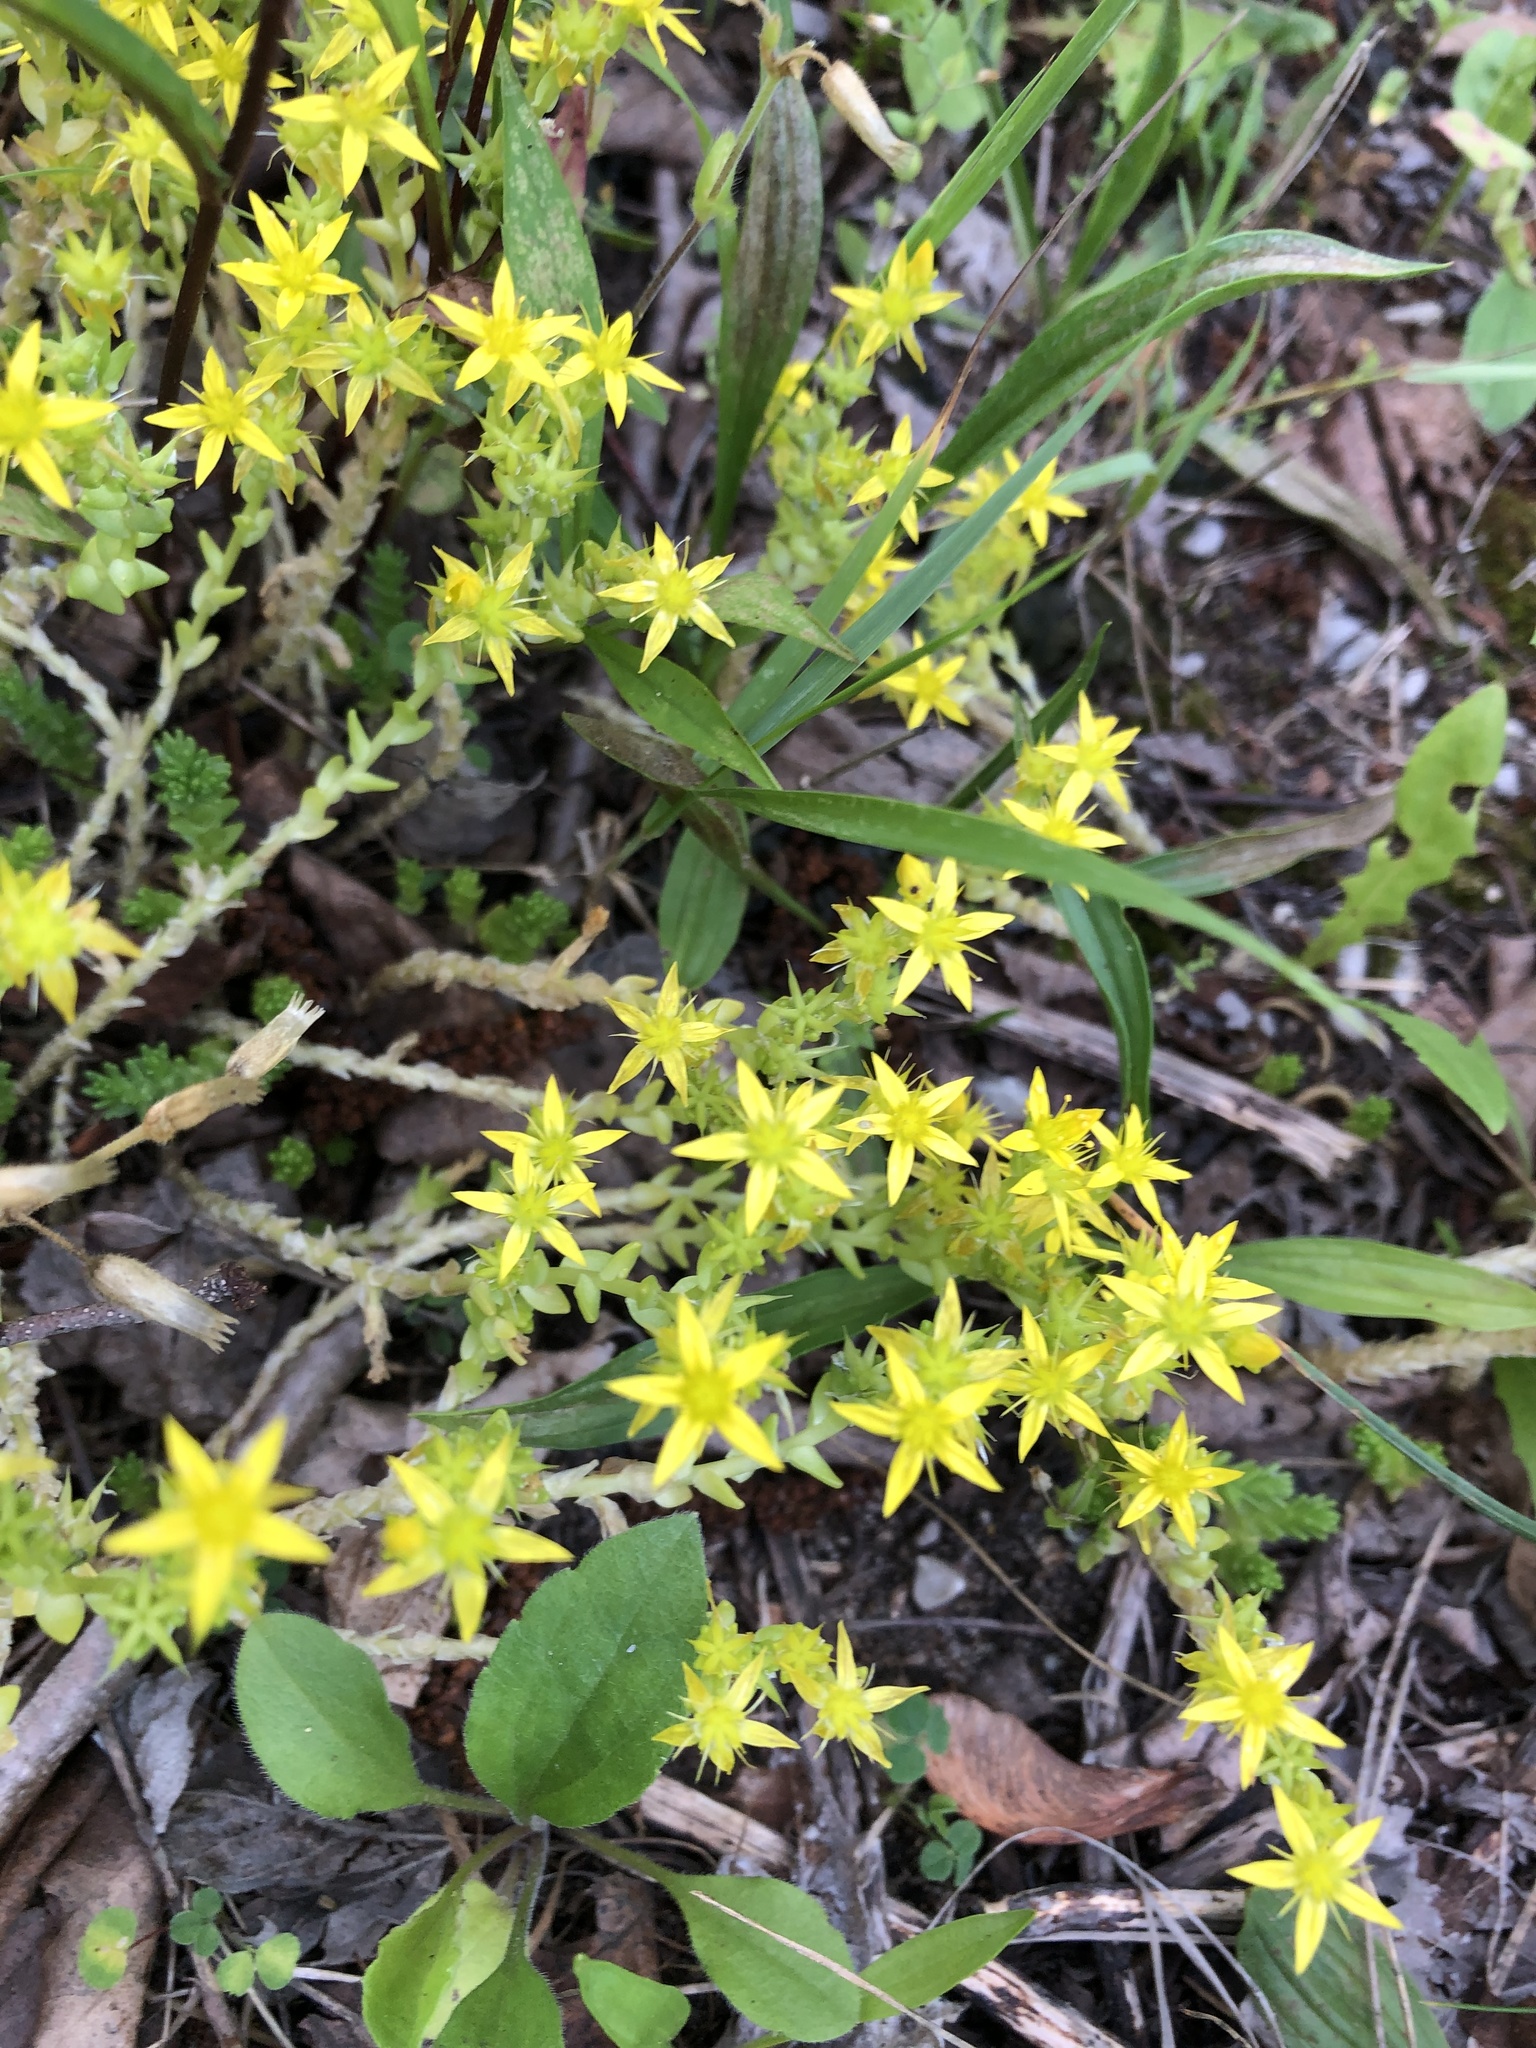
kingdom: Plantae
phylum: Tracheophyta
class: Magnoliopsida
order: Saxifragales
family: Crassulaceae
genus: Sedum
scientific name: Sedum acre
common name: Biting stonecrop
